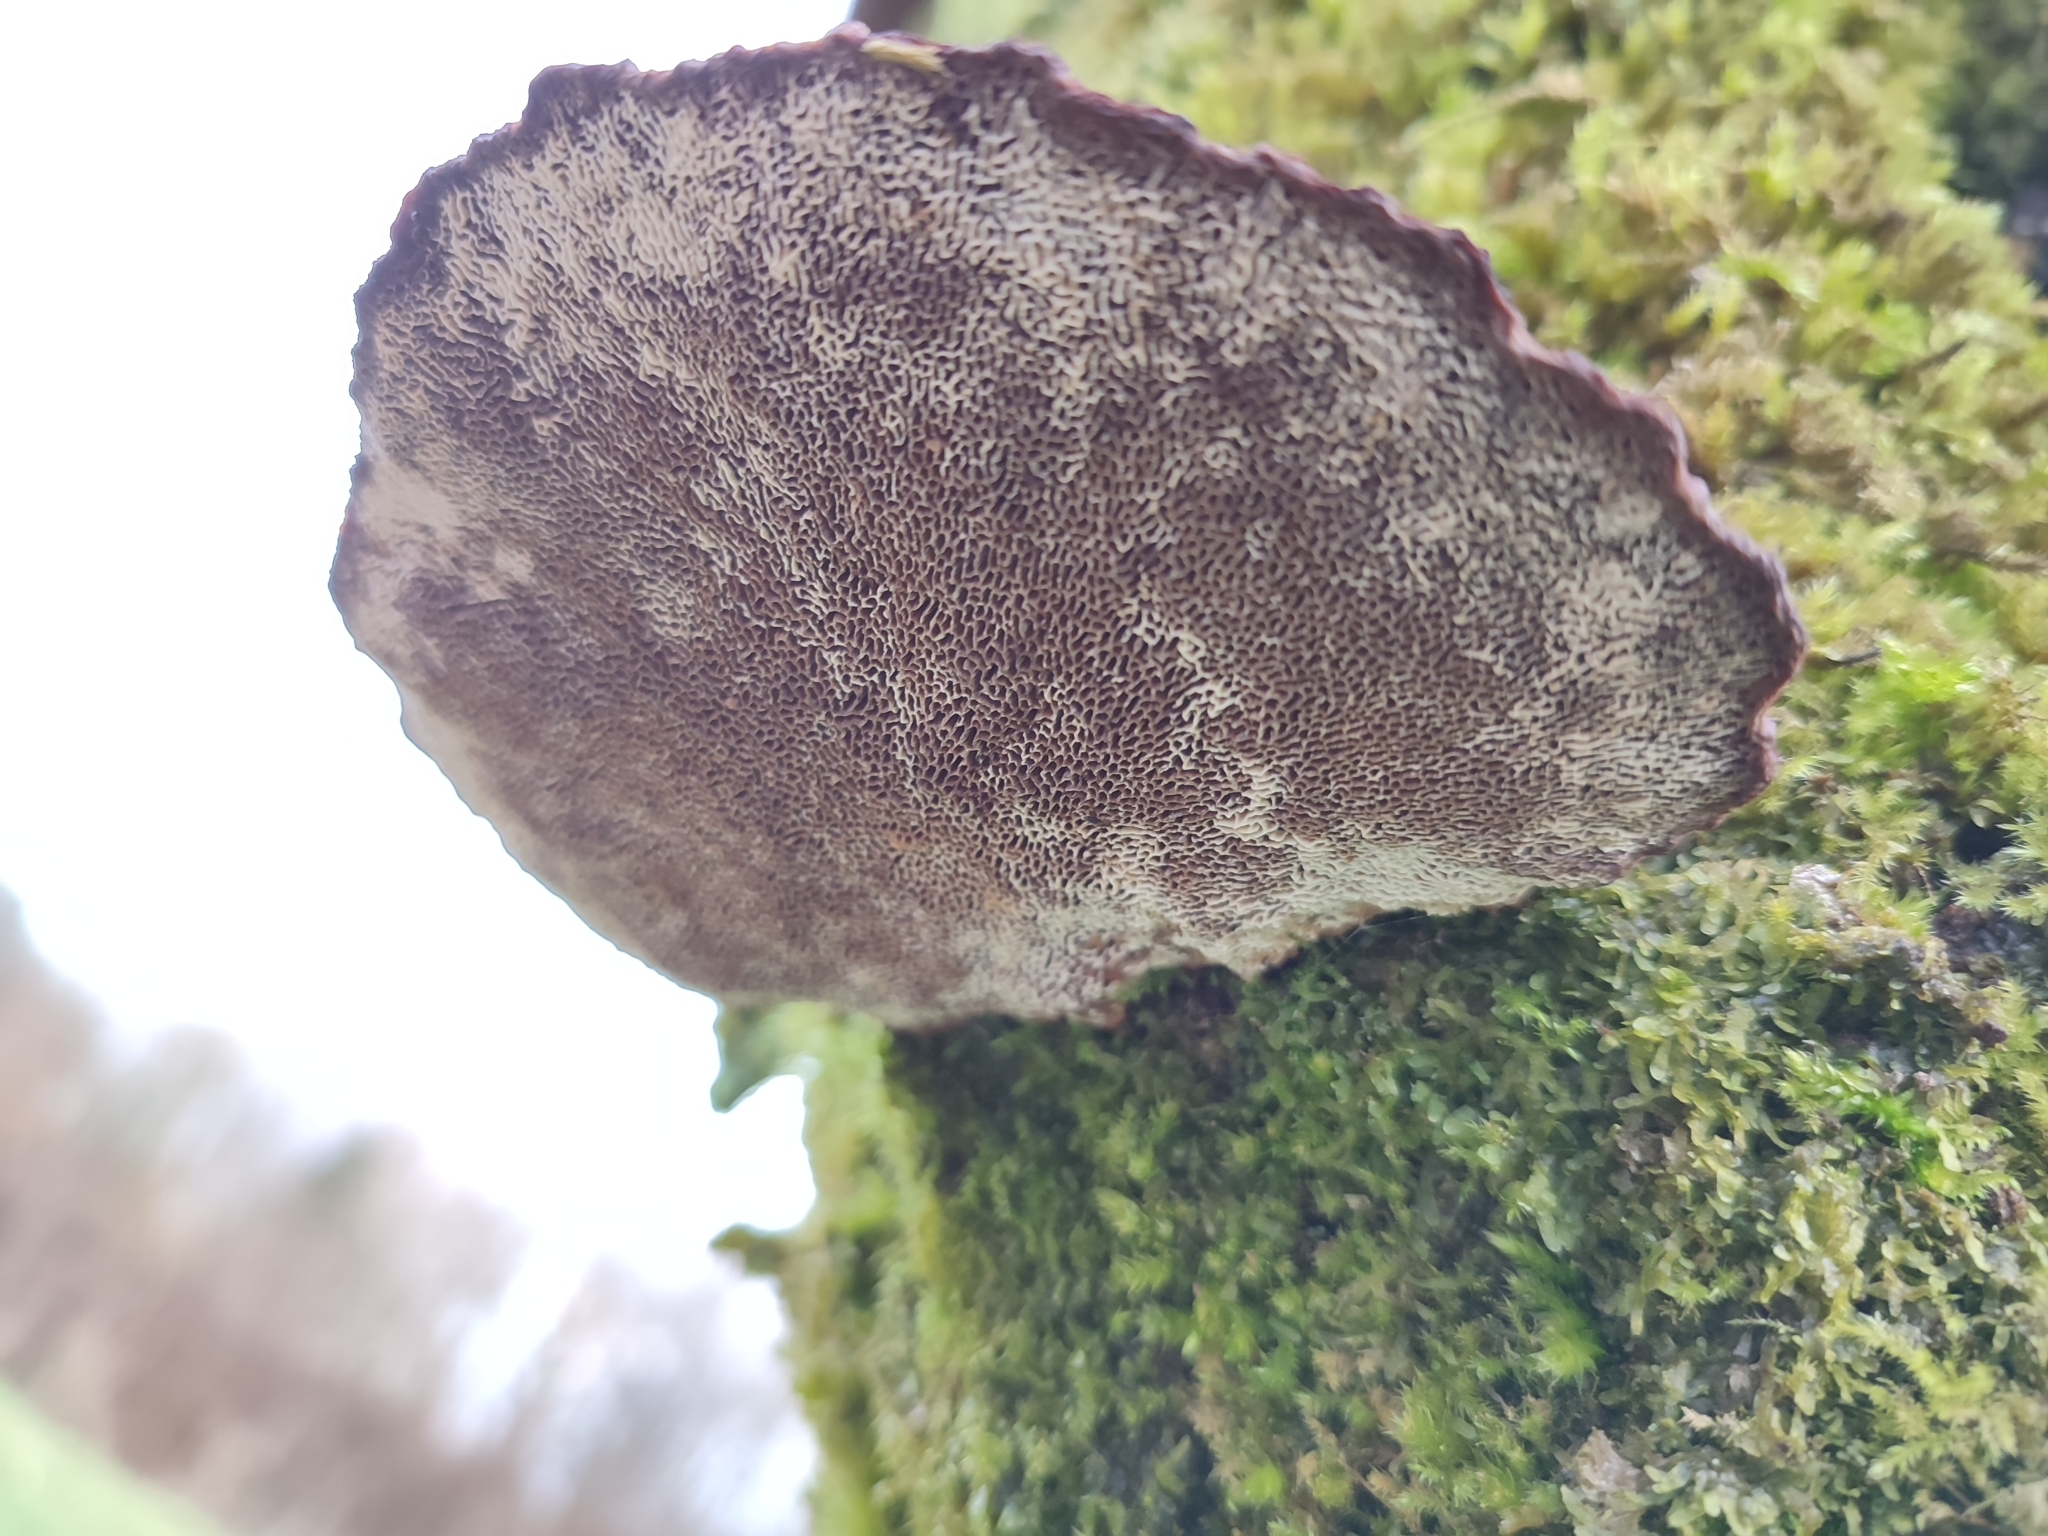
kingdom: Fungi
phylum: Basidiomycota
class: Agaricomycetes
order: Polyporales
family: Polyporaceae
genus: Daedaleopsis
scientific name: Daedaleopsis confragosa
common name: Blushing bracket
